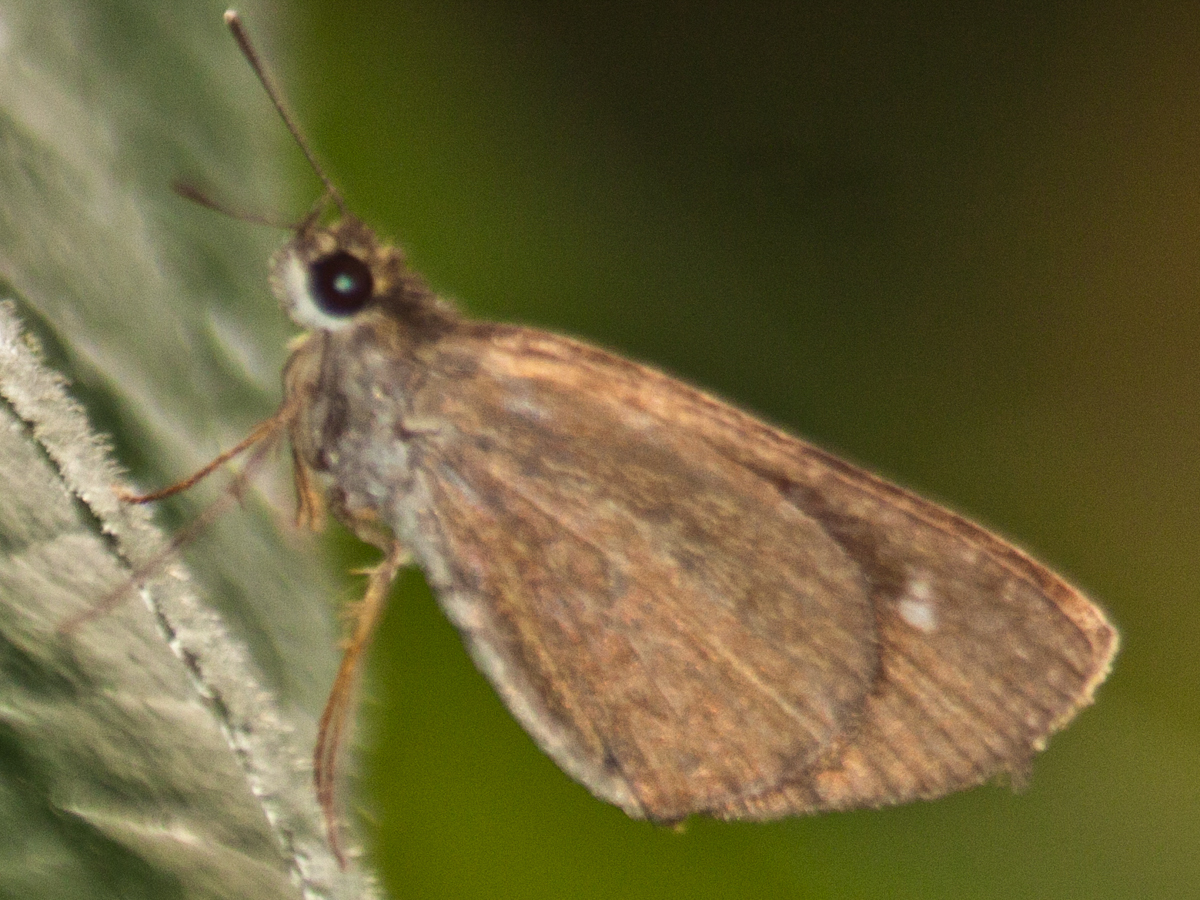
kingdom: Animalia
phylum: Arthropoda
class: Insecta
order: Lepidoptera
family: Hesperiidae
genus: Suada
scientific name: Suada swerga
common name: Grass bob
